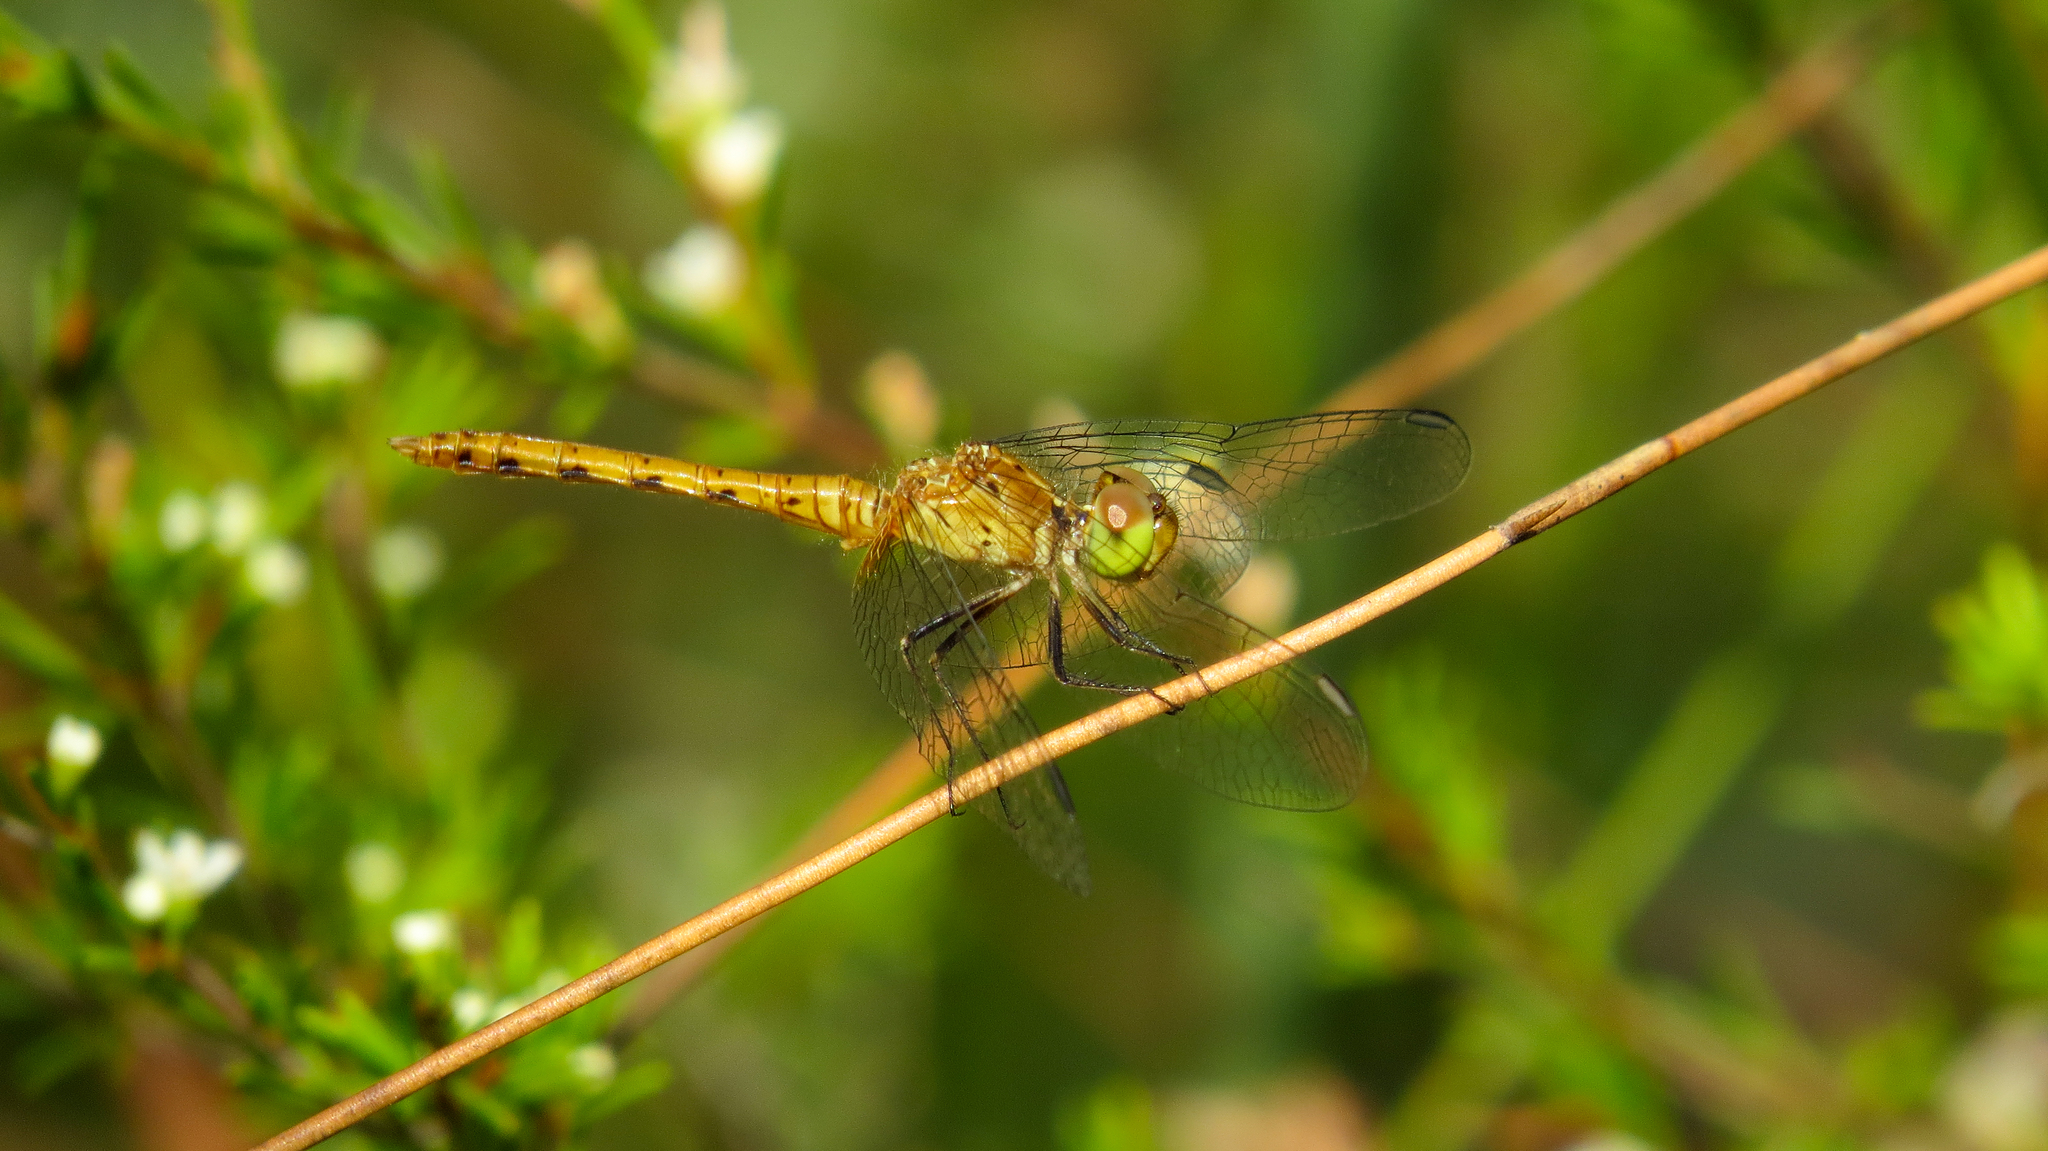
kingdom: Animalia
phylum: Arthropoda
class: Insecta
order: Odonata
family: Libellulidae
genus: Nannodiplax
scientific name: Nannodiplax rubra
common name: Pygmy percher
